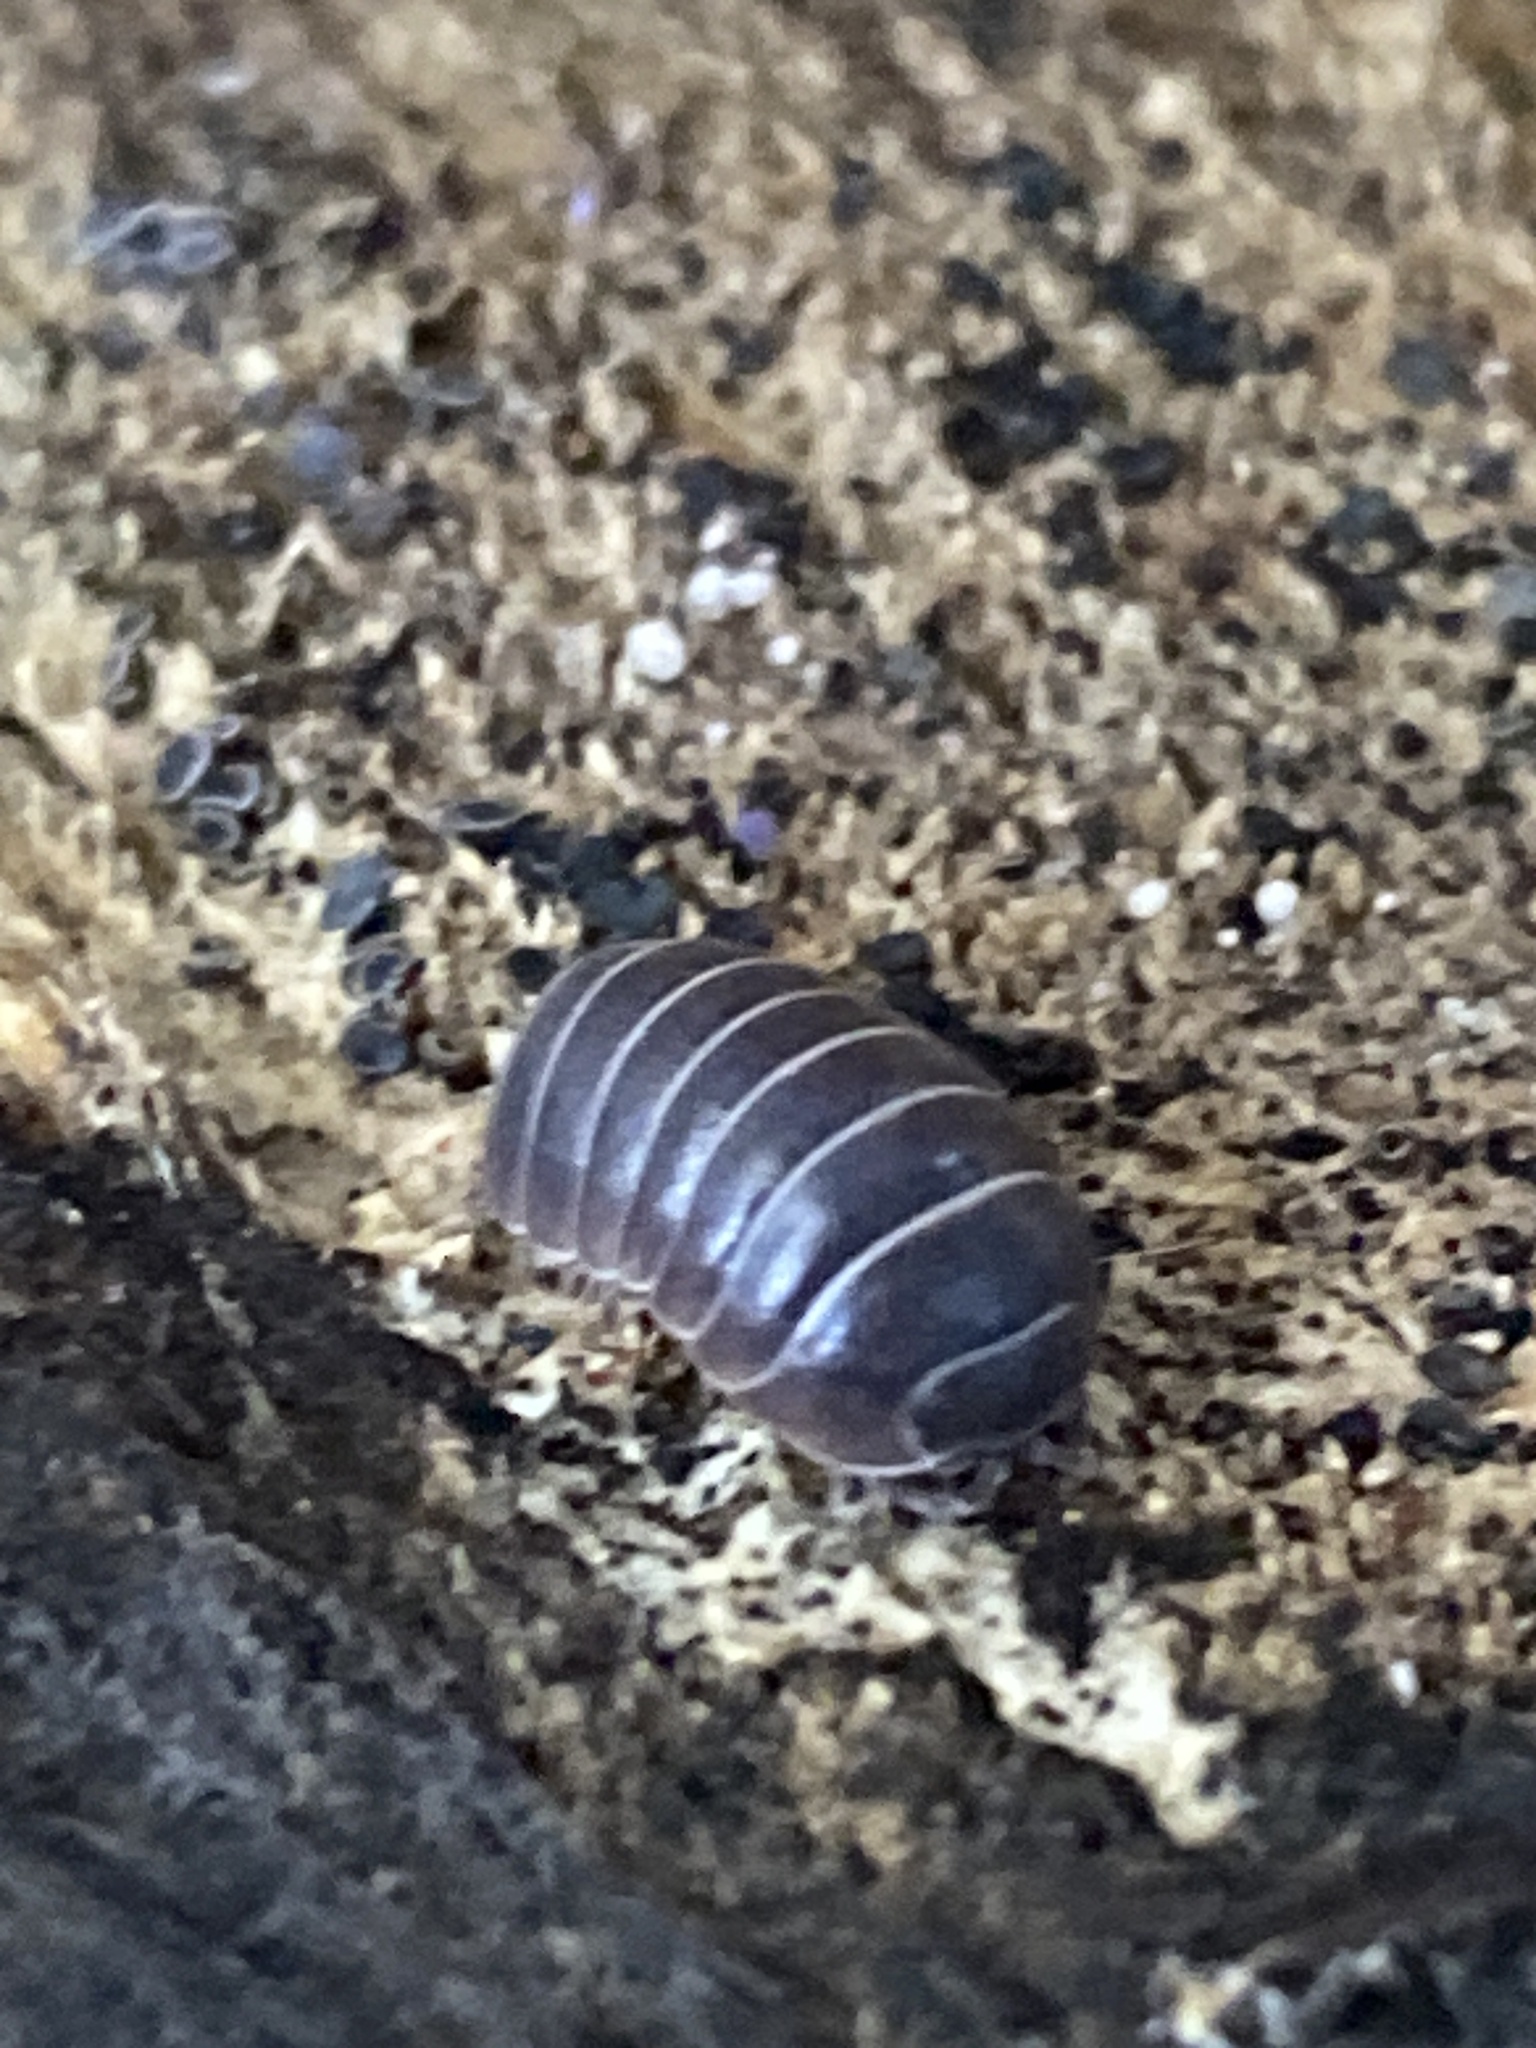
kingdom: Animalia
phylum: Arthropoda
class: Malacostraca
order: Isopoda
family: Armadillidiidae
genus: Armadillidium
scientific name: Armadillidium vulgare
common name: Common pill woodlouse
